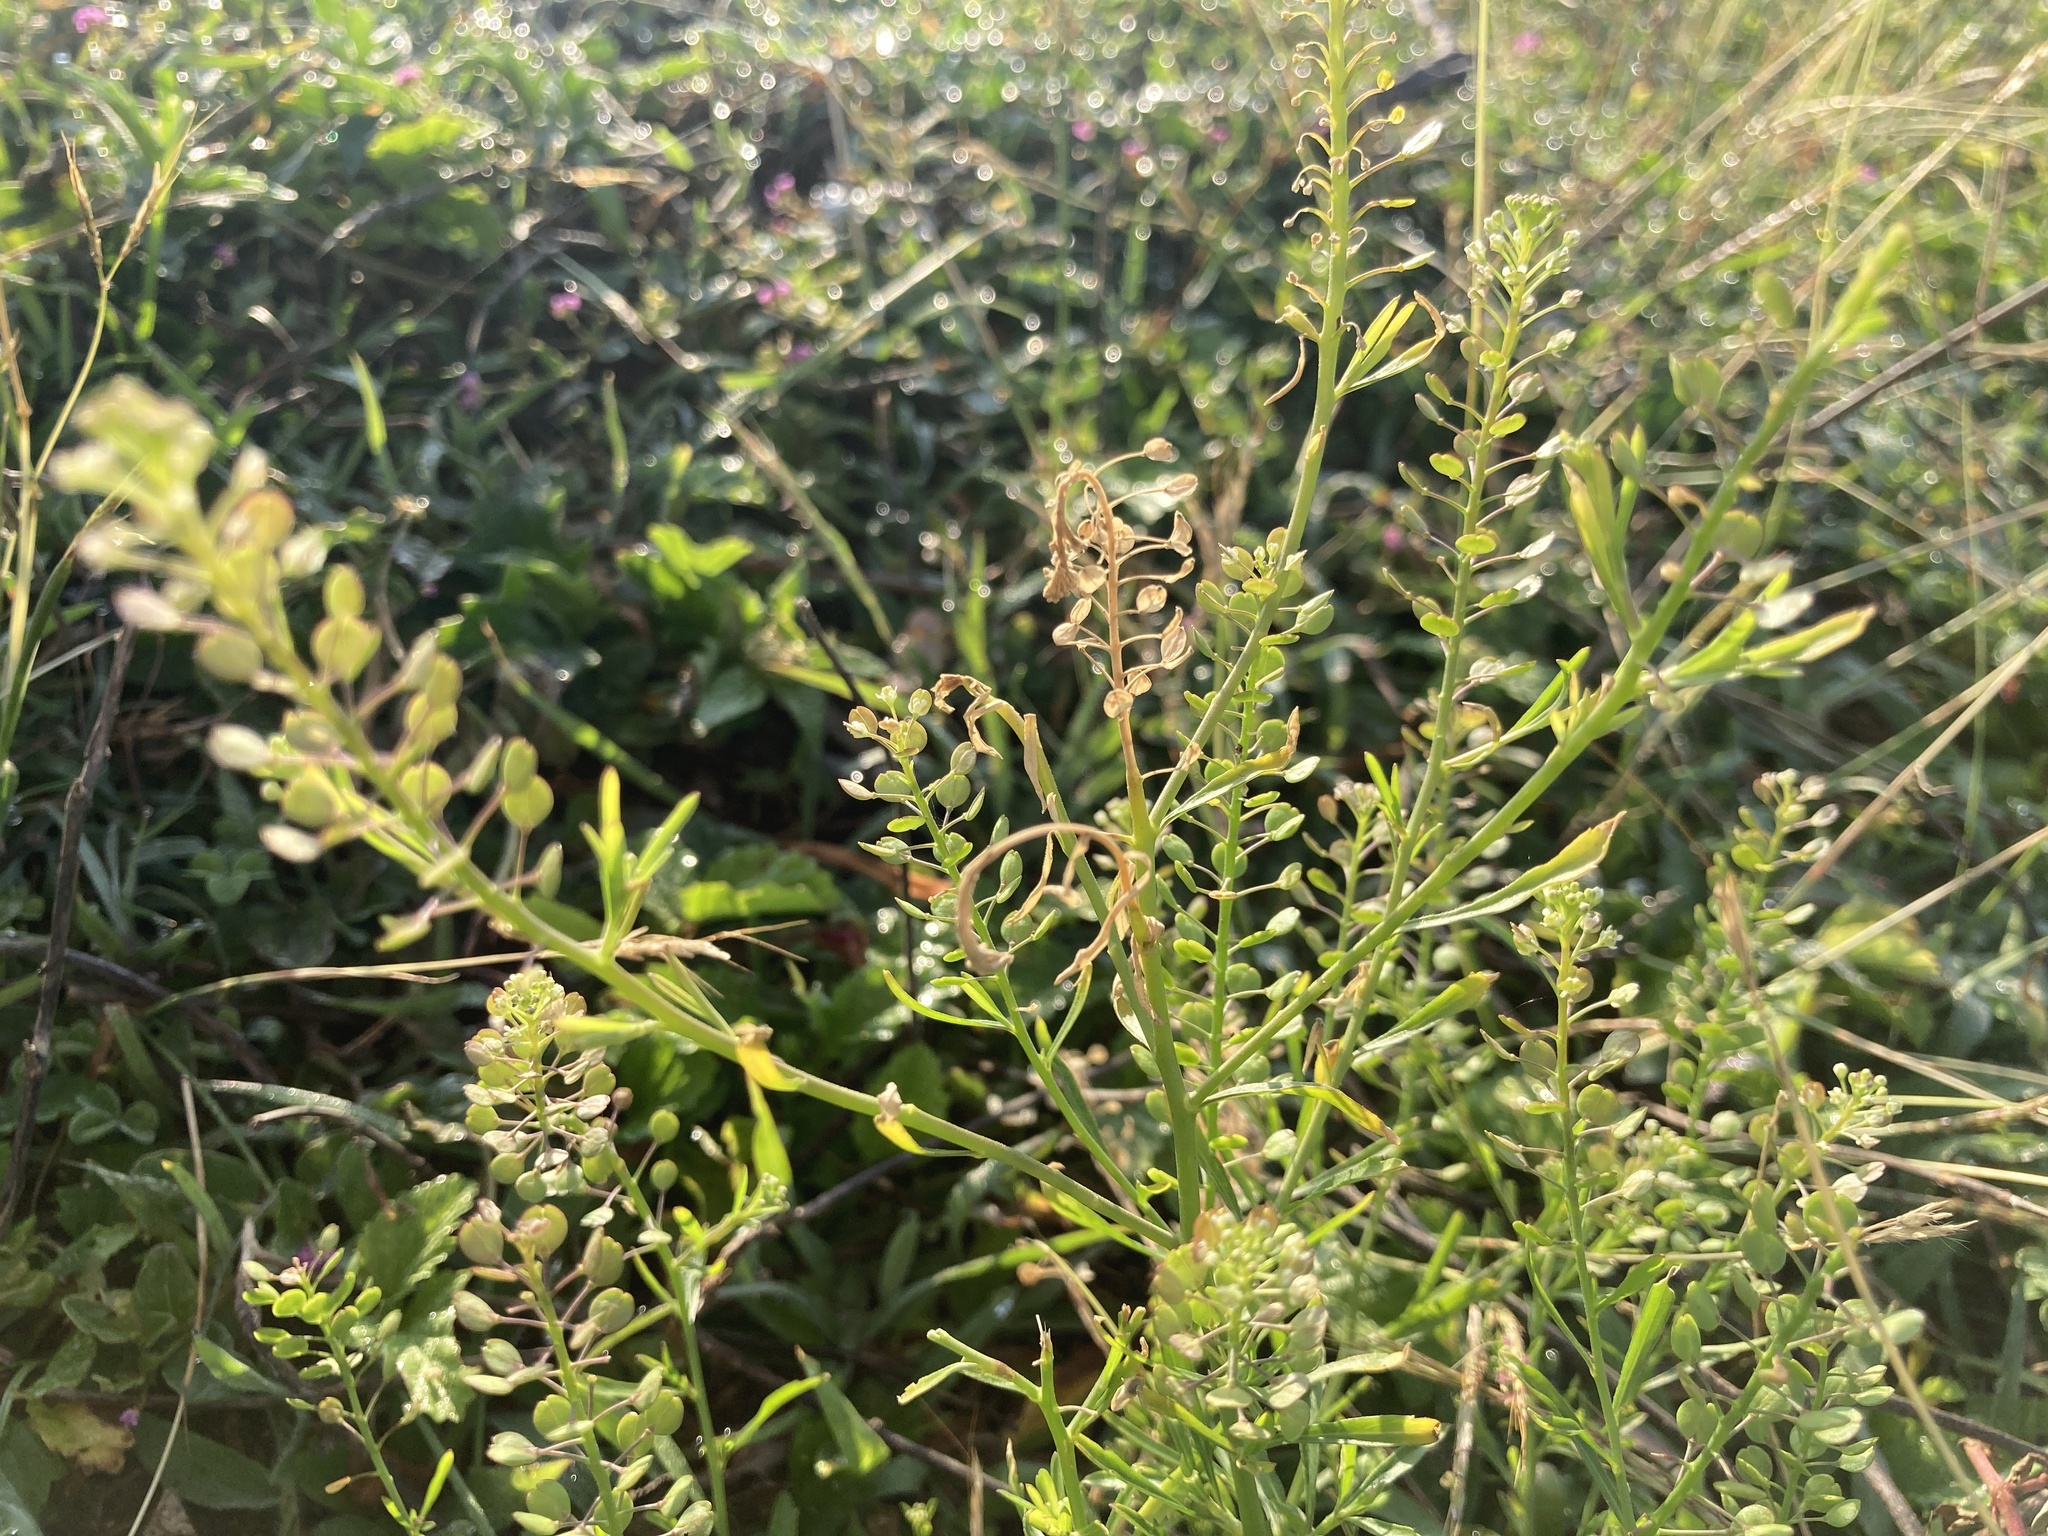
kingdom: Plantae
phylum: Tracheophyta
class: Magnoliopsida
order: Brassicales
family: Brassicaceae
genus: Lepidium
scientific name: Lepidium virginicum
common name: Least pepperwort
